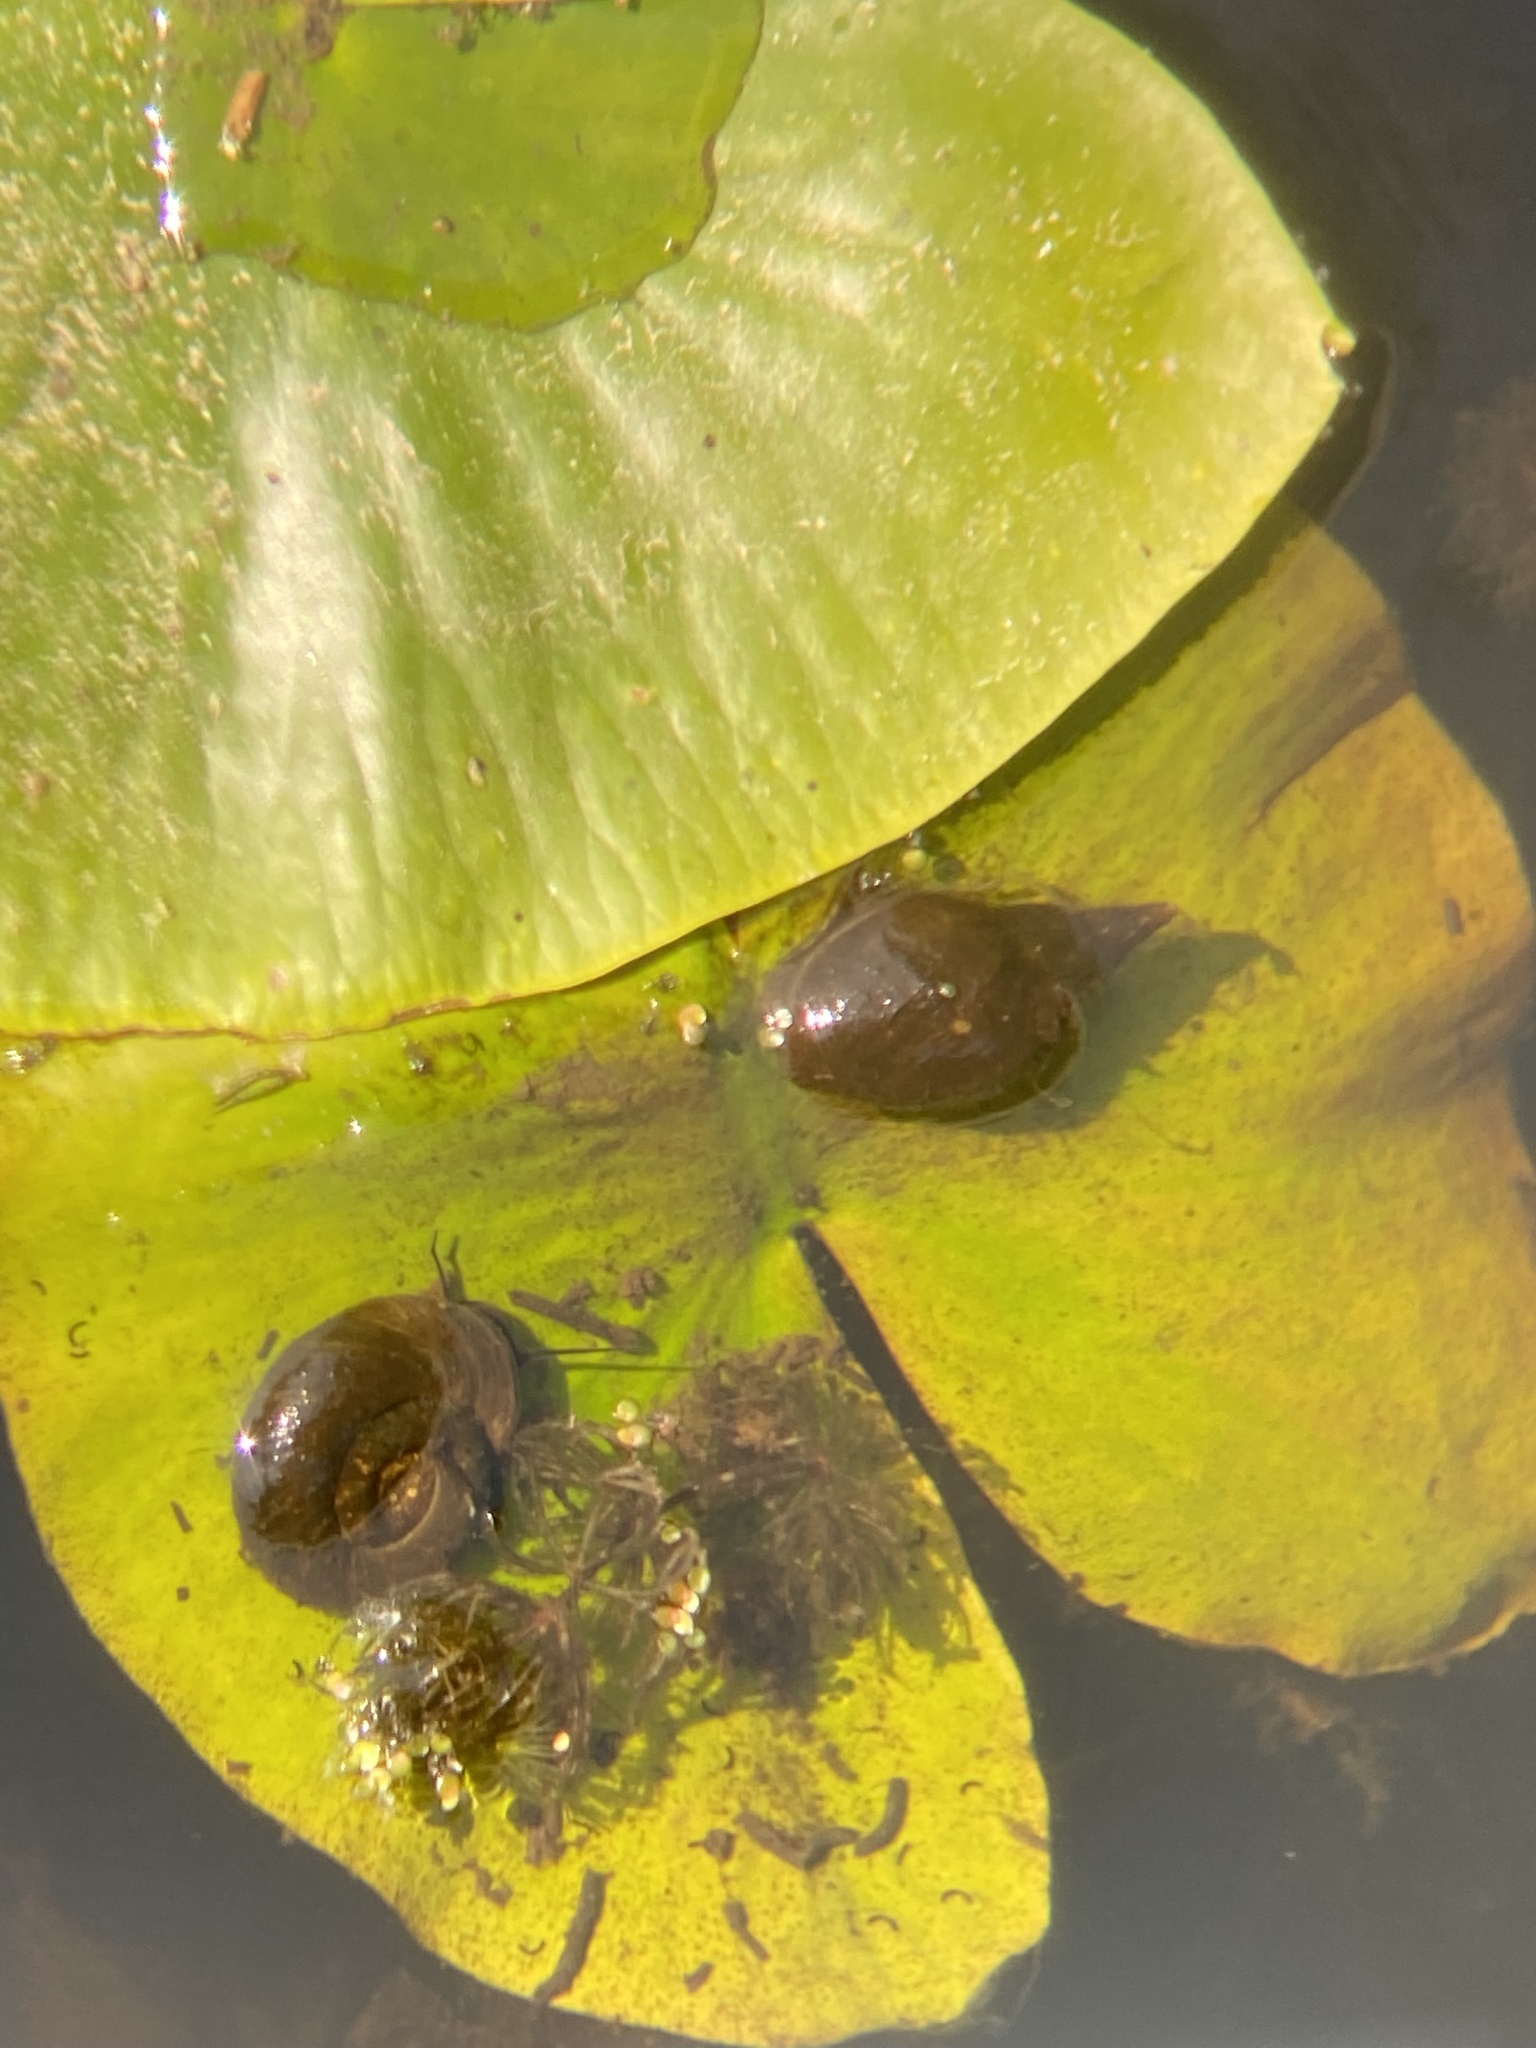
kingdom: Animalia
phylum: Mollusca
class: Gastropoda
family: Lymnaeidae
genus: Lymnaea
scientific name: Lymnaea stagnalis
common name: Great pond snail
